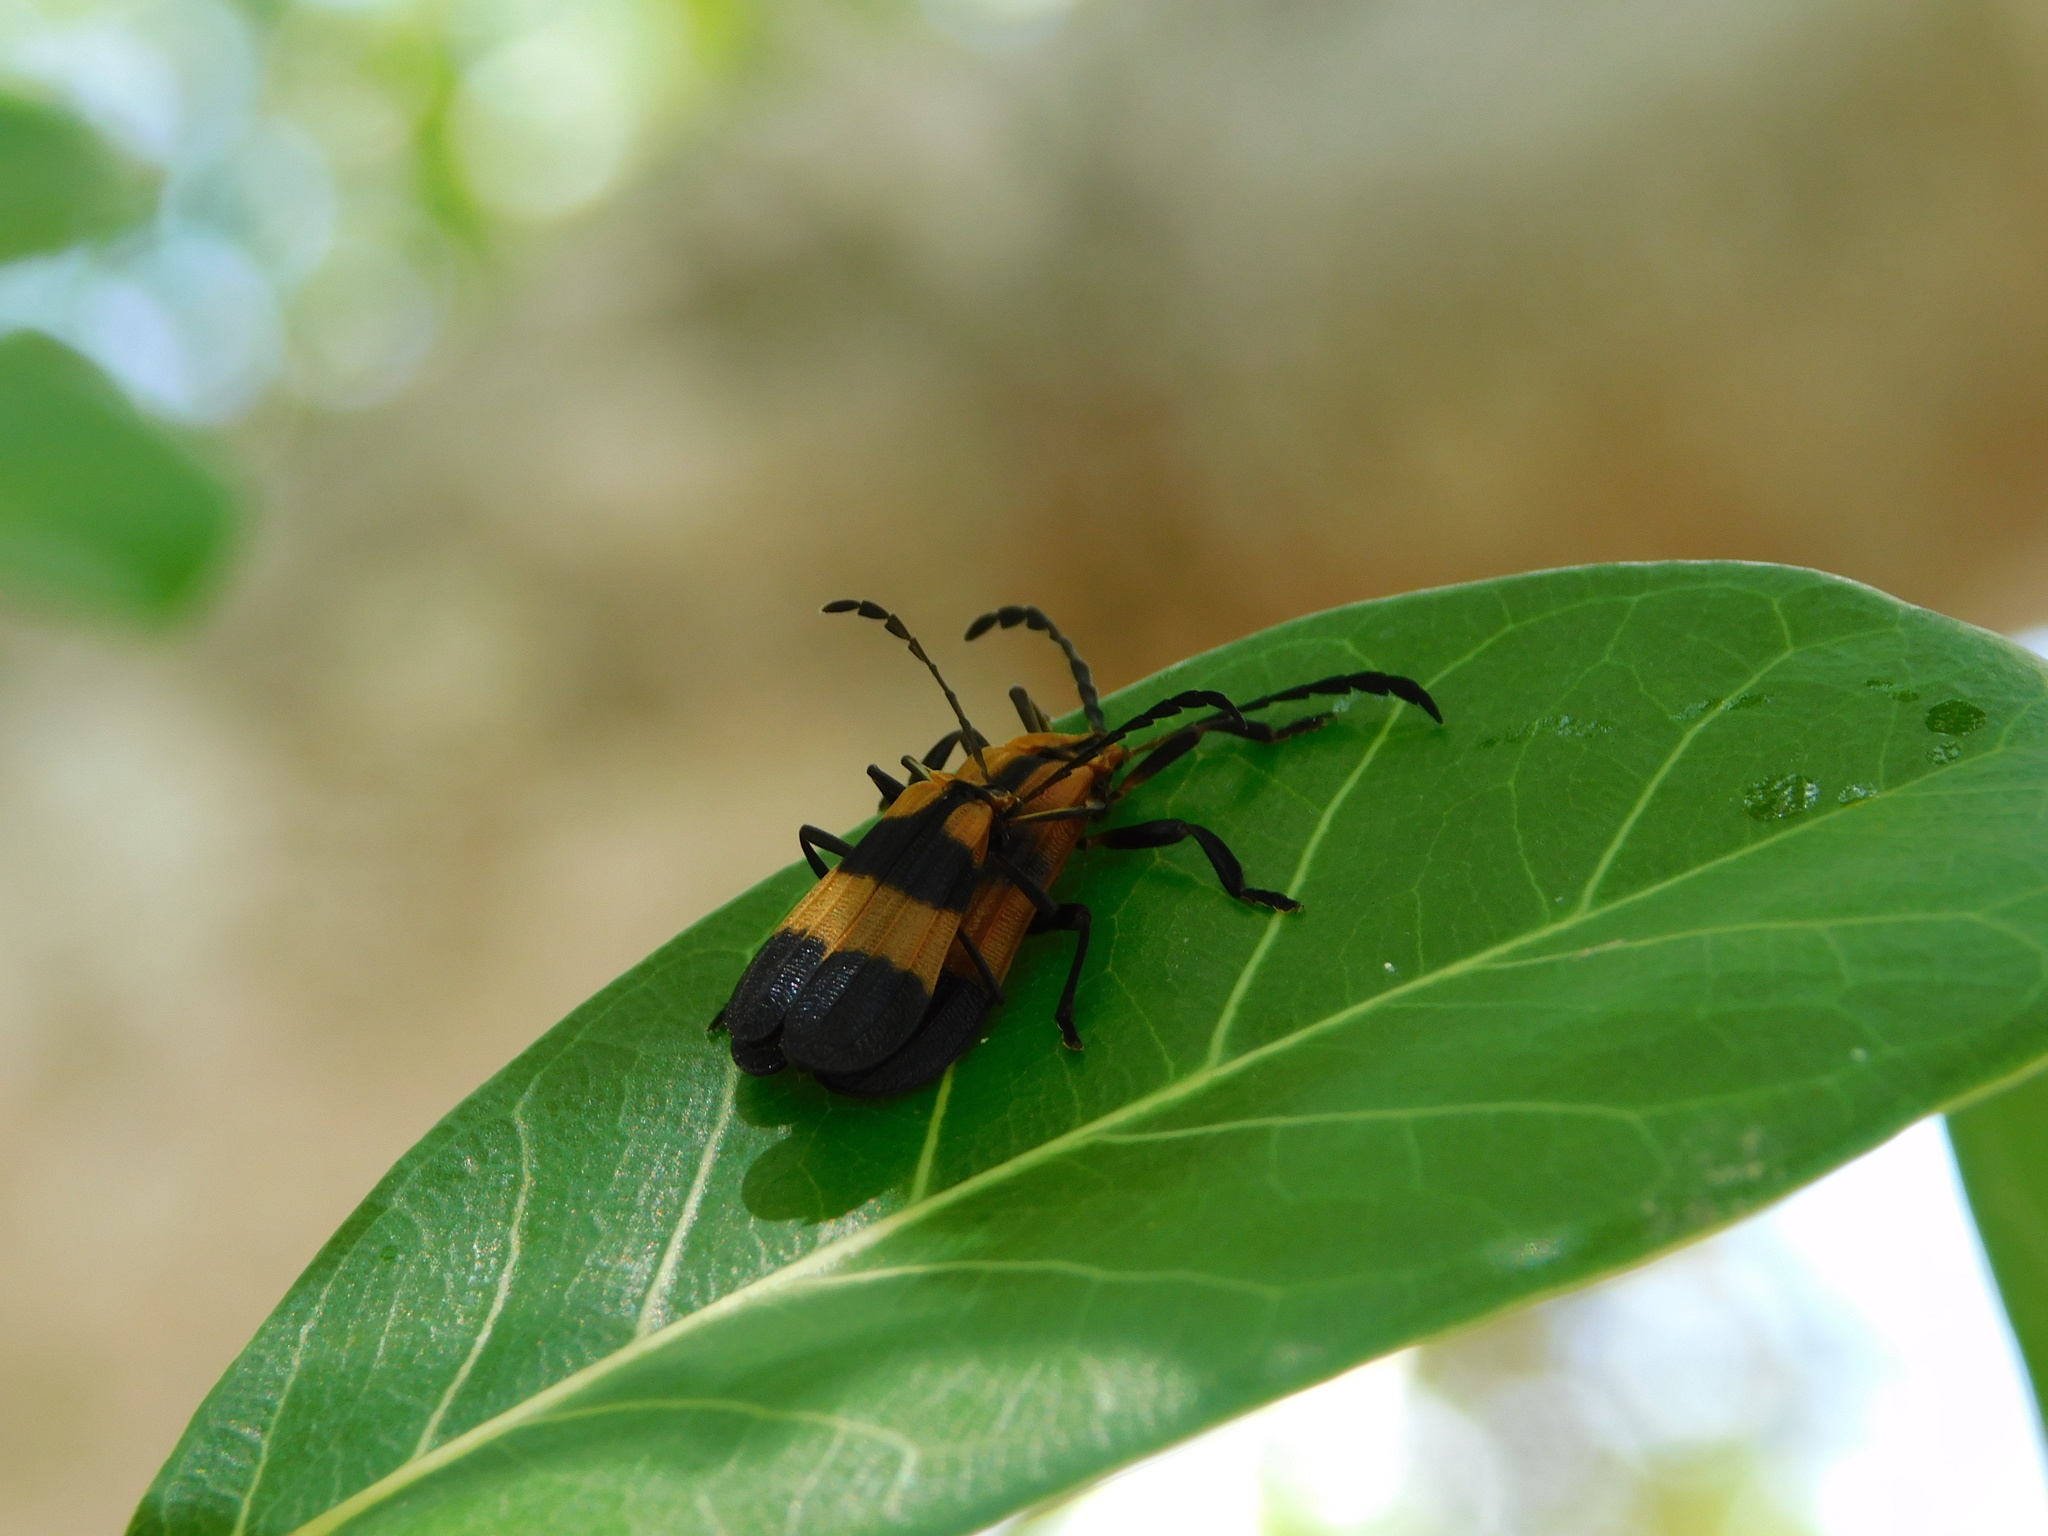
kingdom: Animalia
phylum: Arthropoda
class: Insecta
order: Coleoptera
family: Lycidae
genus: Calopteron
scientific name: Calopteron reticulatum
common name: Banded net-winged beetle
